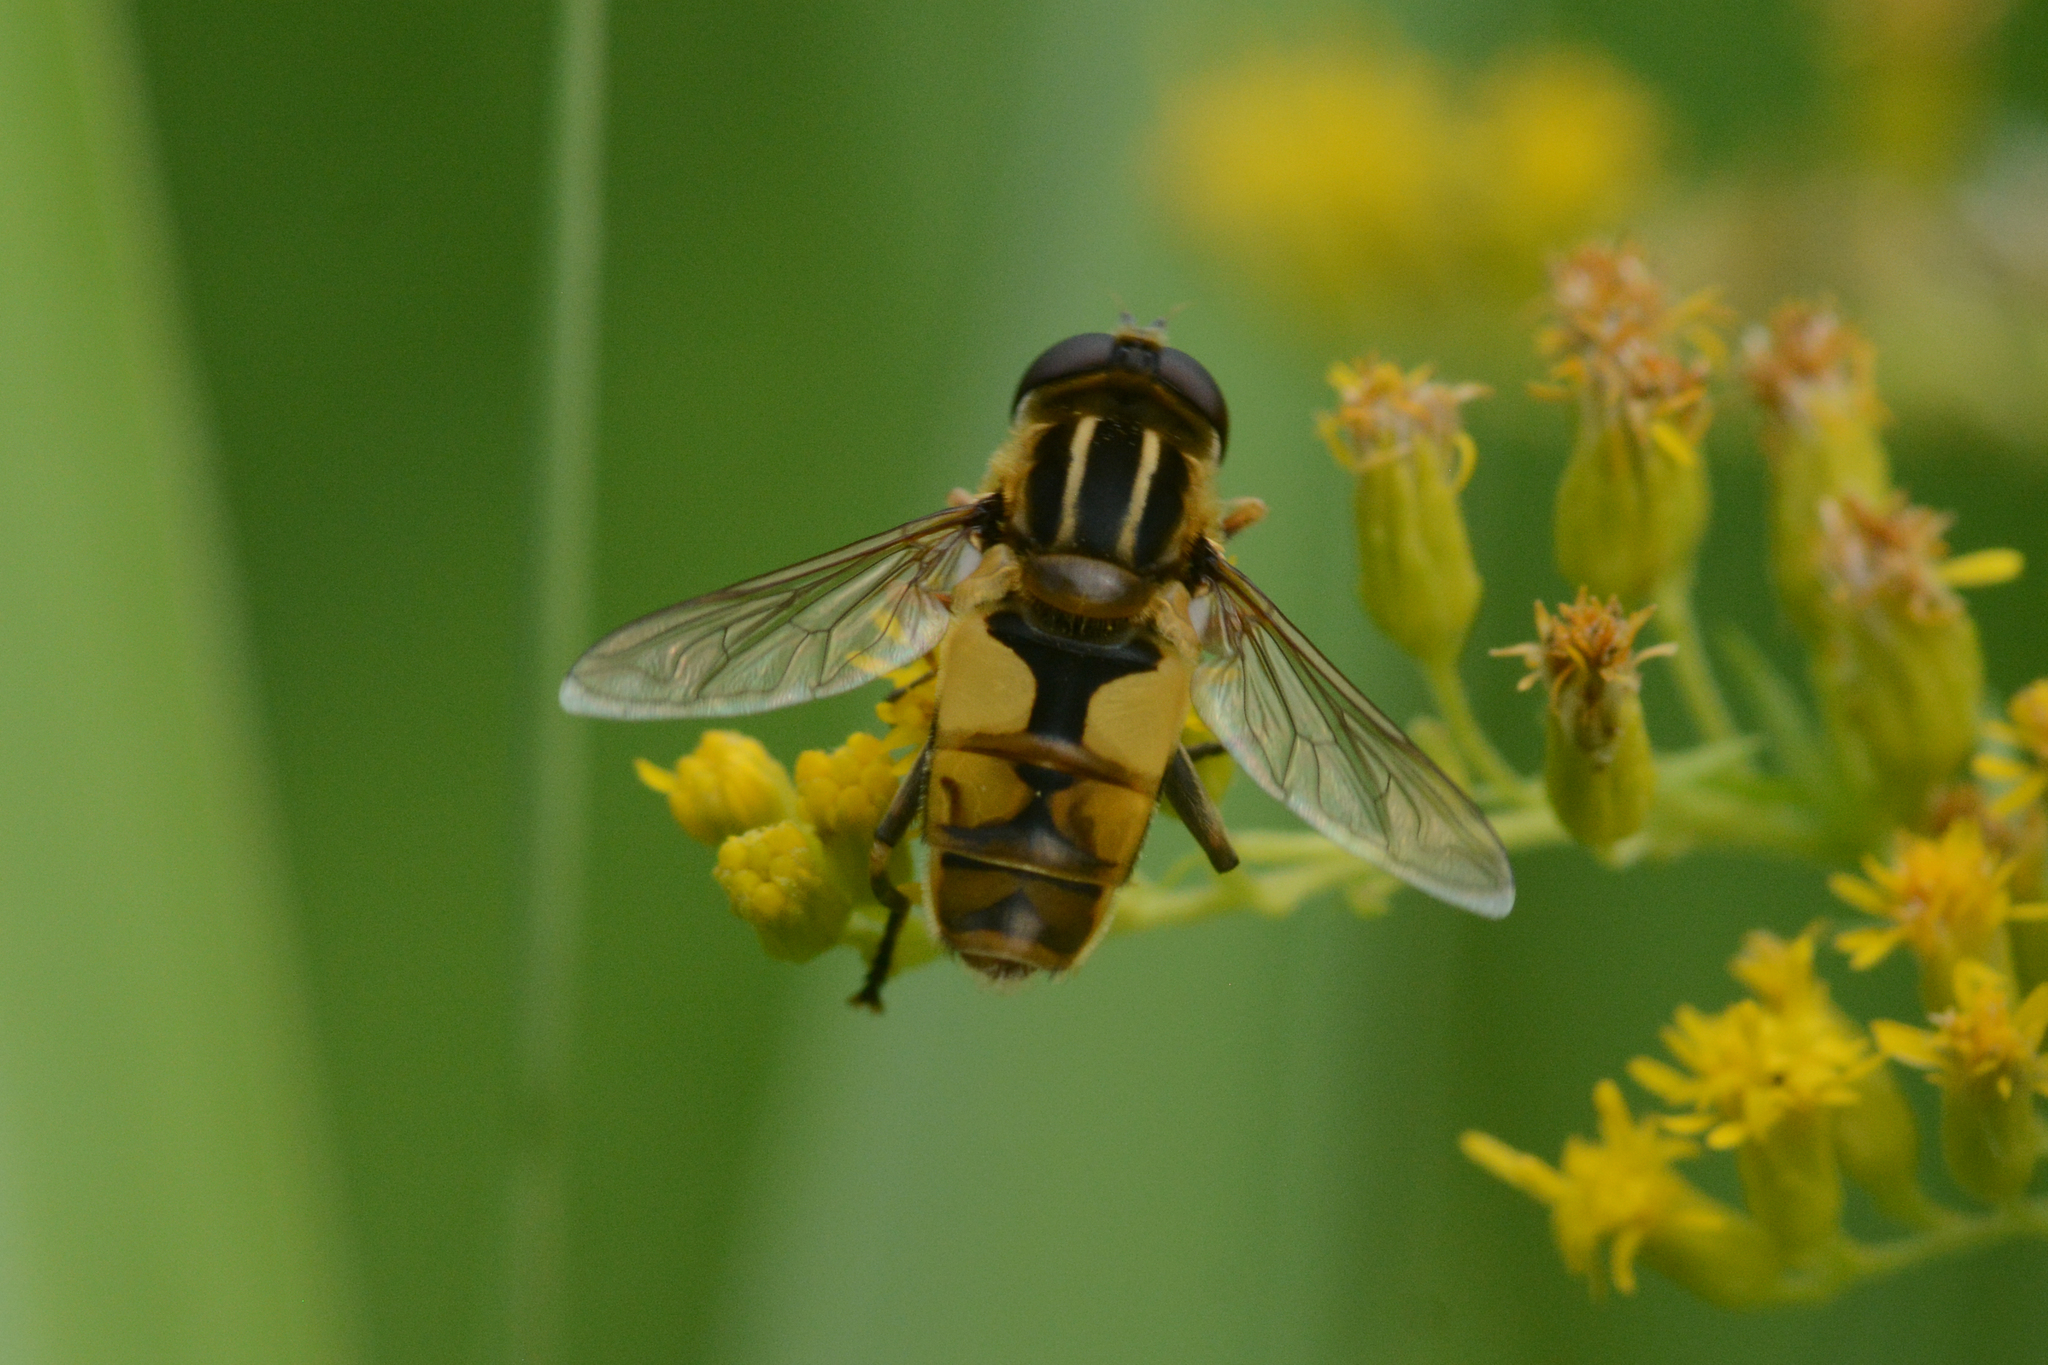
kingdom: Animalia
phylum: Arthropoda
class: Insecta
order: Diptera
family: Syrphidae
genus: Helophilus
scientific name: Helophilus hybridus
